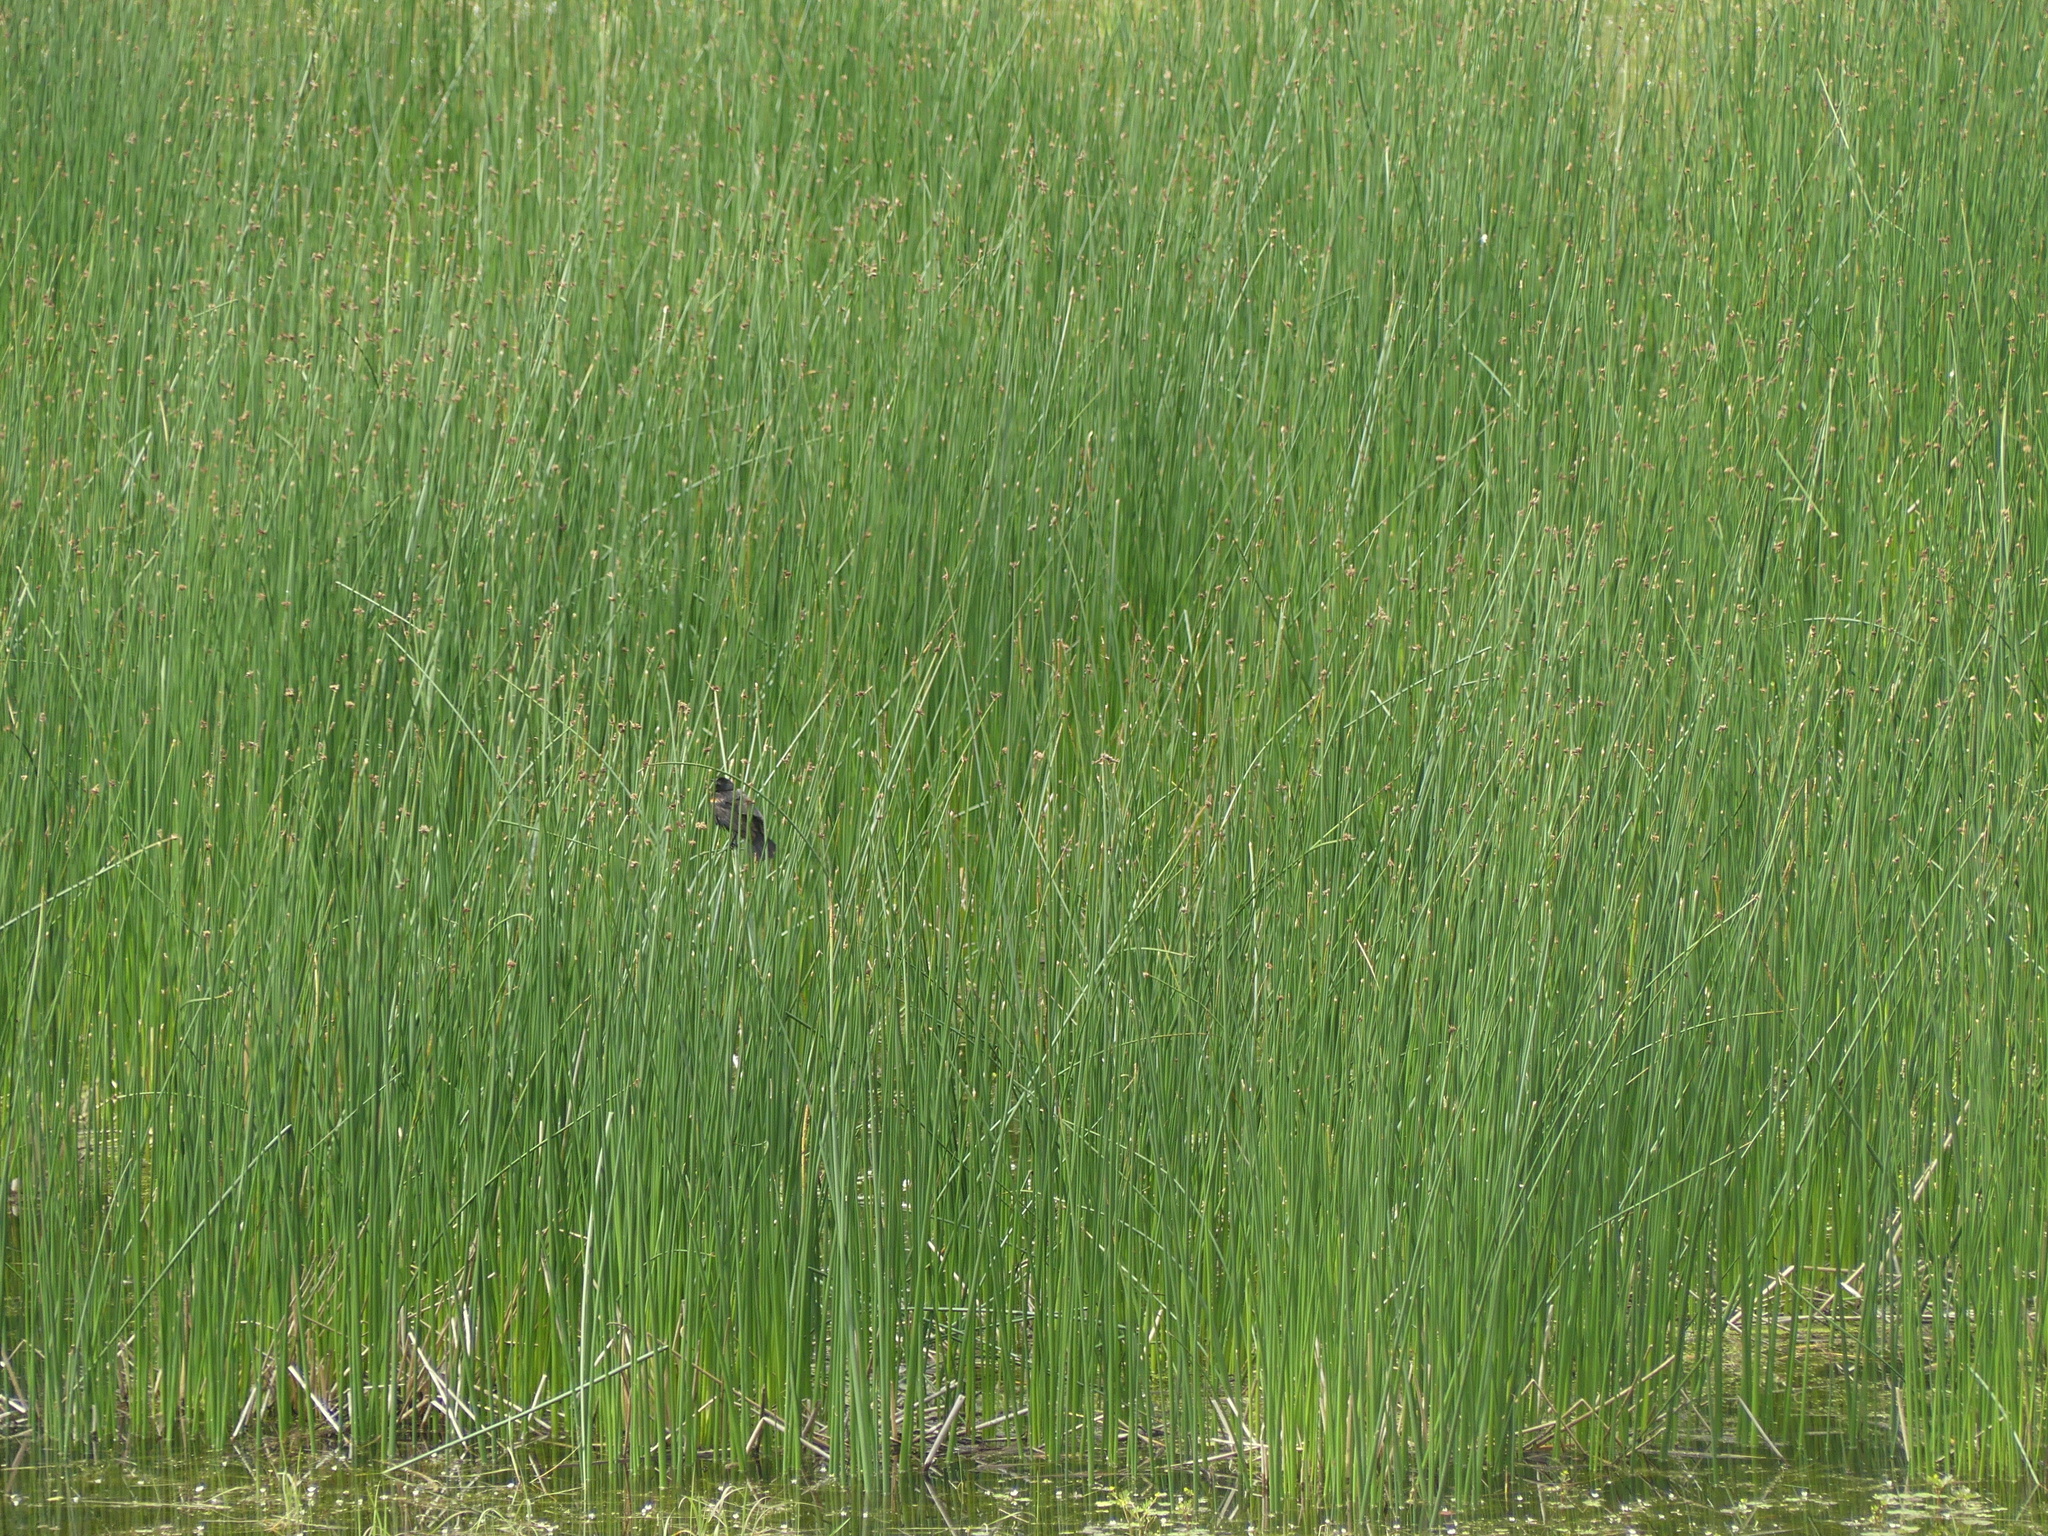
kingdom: Animalia
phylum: Chordata
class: Aves
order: Passeriformes
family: Icteridae
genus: Agelaius
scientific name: Agelaius phoeniceus
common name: Red-winged blackbird
